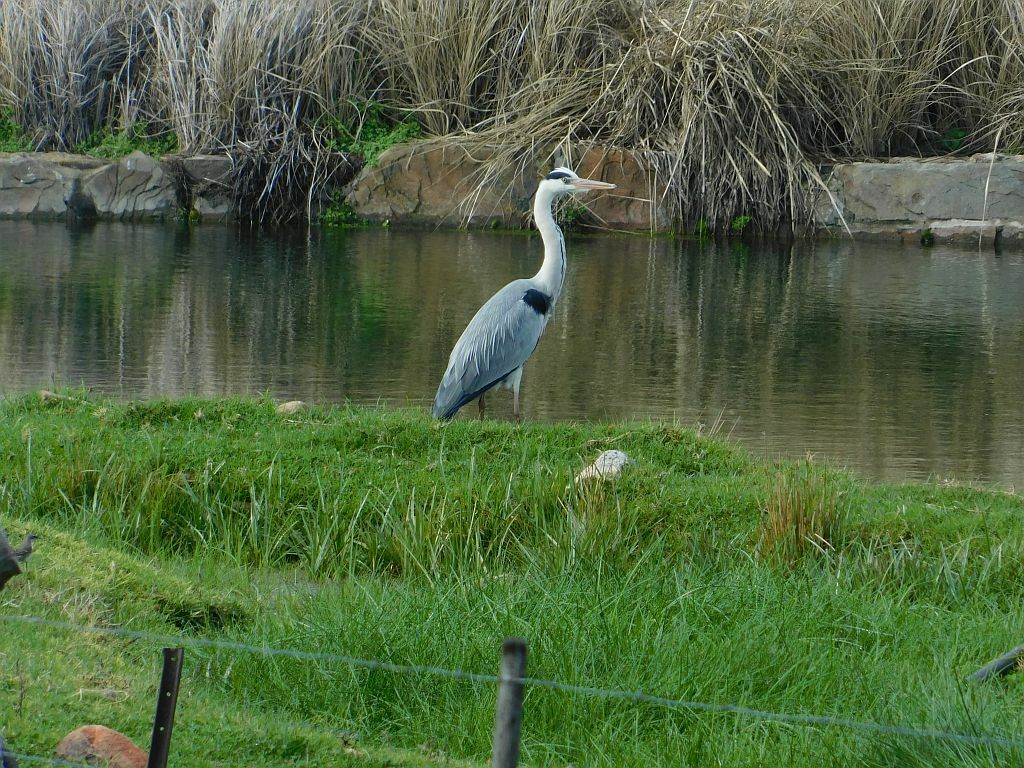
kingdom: Animalia
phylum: Chordata
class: Aves
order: Pelecaniformes
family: Ardeidae
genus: Ardea
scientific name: Ardea cinerea
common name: Grey heron
